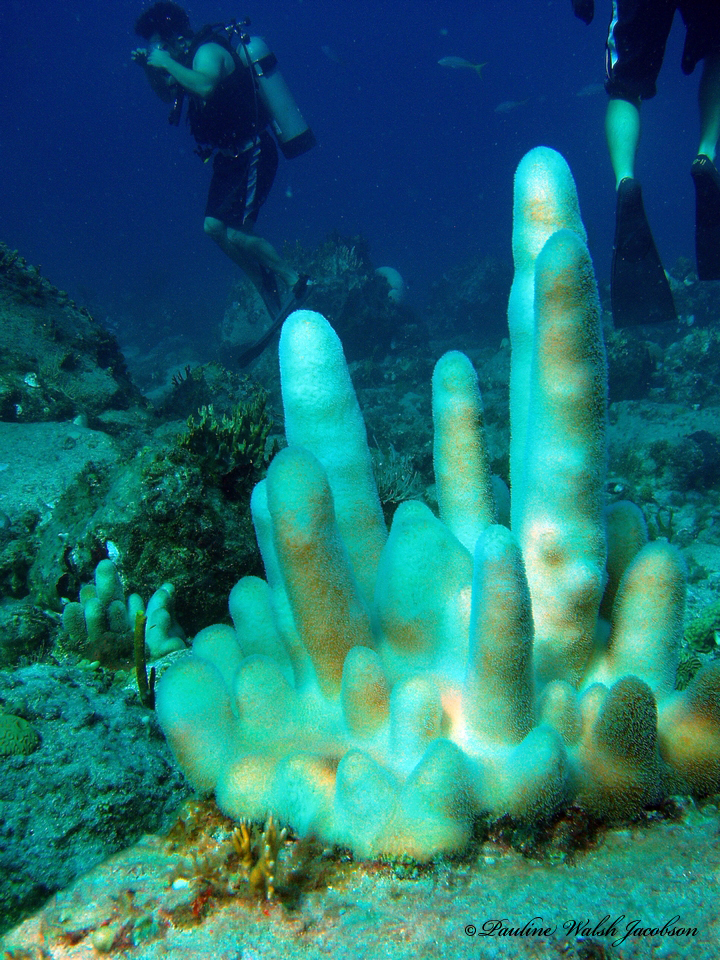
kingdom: Animalia
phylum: Cnidaria
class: Anthozoa
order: Scleractinia
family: Meandrinidae
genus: Dendrogyra
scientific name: Dendrogyra cylindrus
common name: Pillar coral
